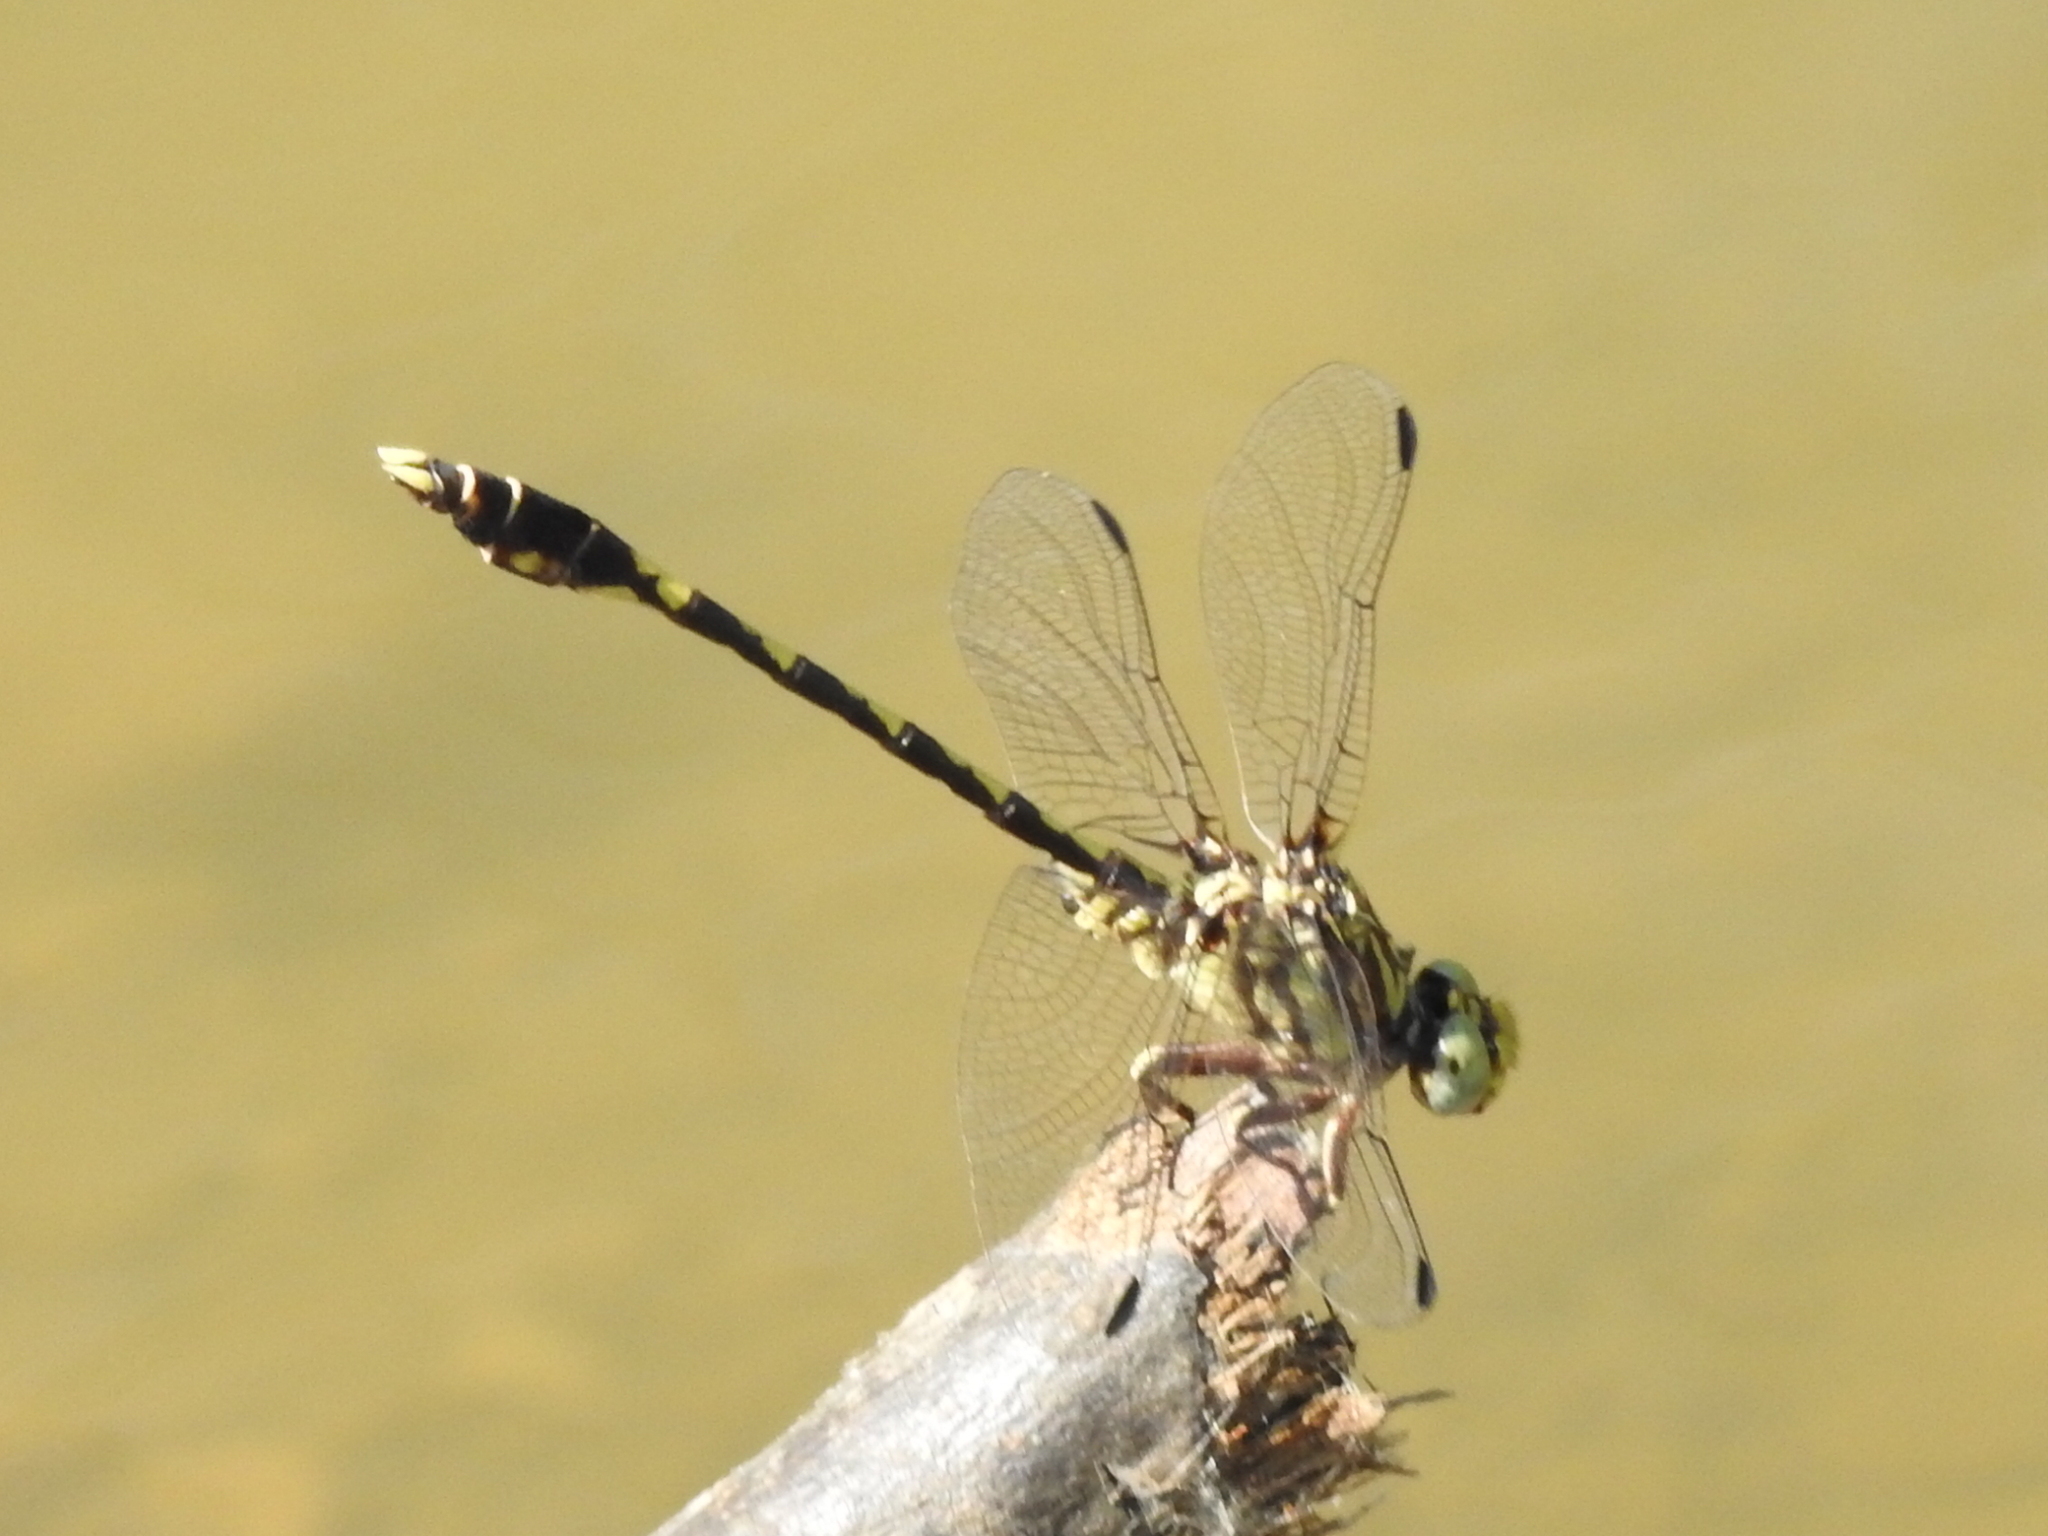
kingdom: Animalia
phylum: Arthropoda
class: Insecta
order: Odonata
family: Gomphidae
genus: Progomphus
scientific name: Progomphus obscurus
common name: Common sanddragon
